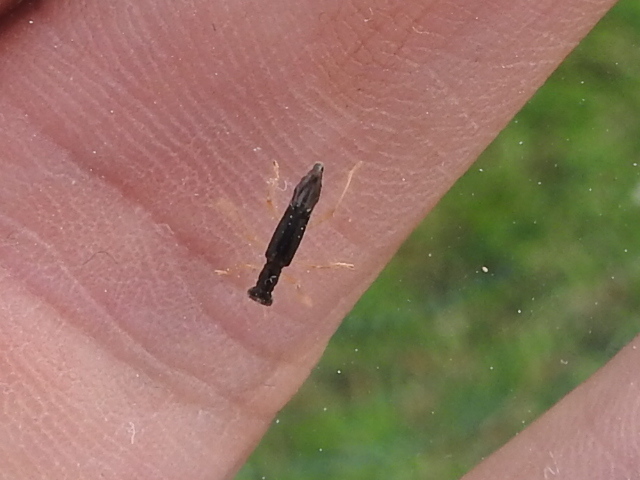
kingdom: Animalia
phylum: Arthropoda
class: Insecta
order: Coleoptera
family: Cleridae
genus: Isohydnocera
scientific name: Isohydnocera curtipennis
